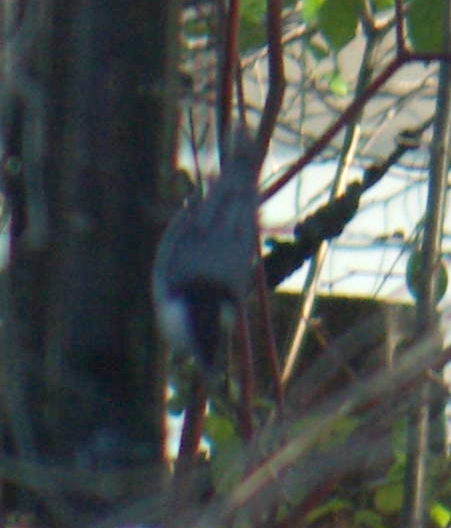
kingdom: Animalia
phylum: Chordata
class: Aves
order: Passeriformes
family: Sittidae
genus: Sitta
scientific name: Sitta carolinensis
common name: White-breasted nuthatch
